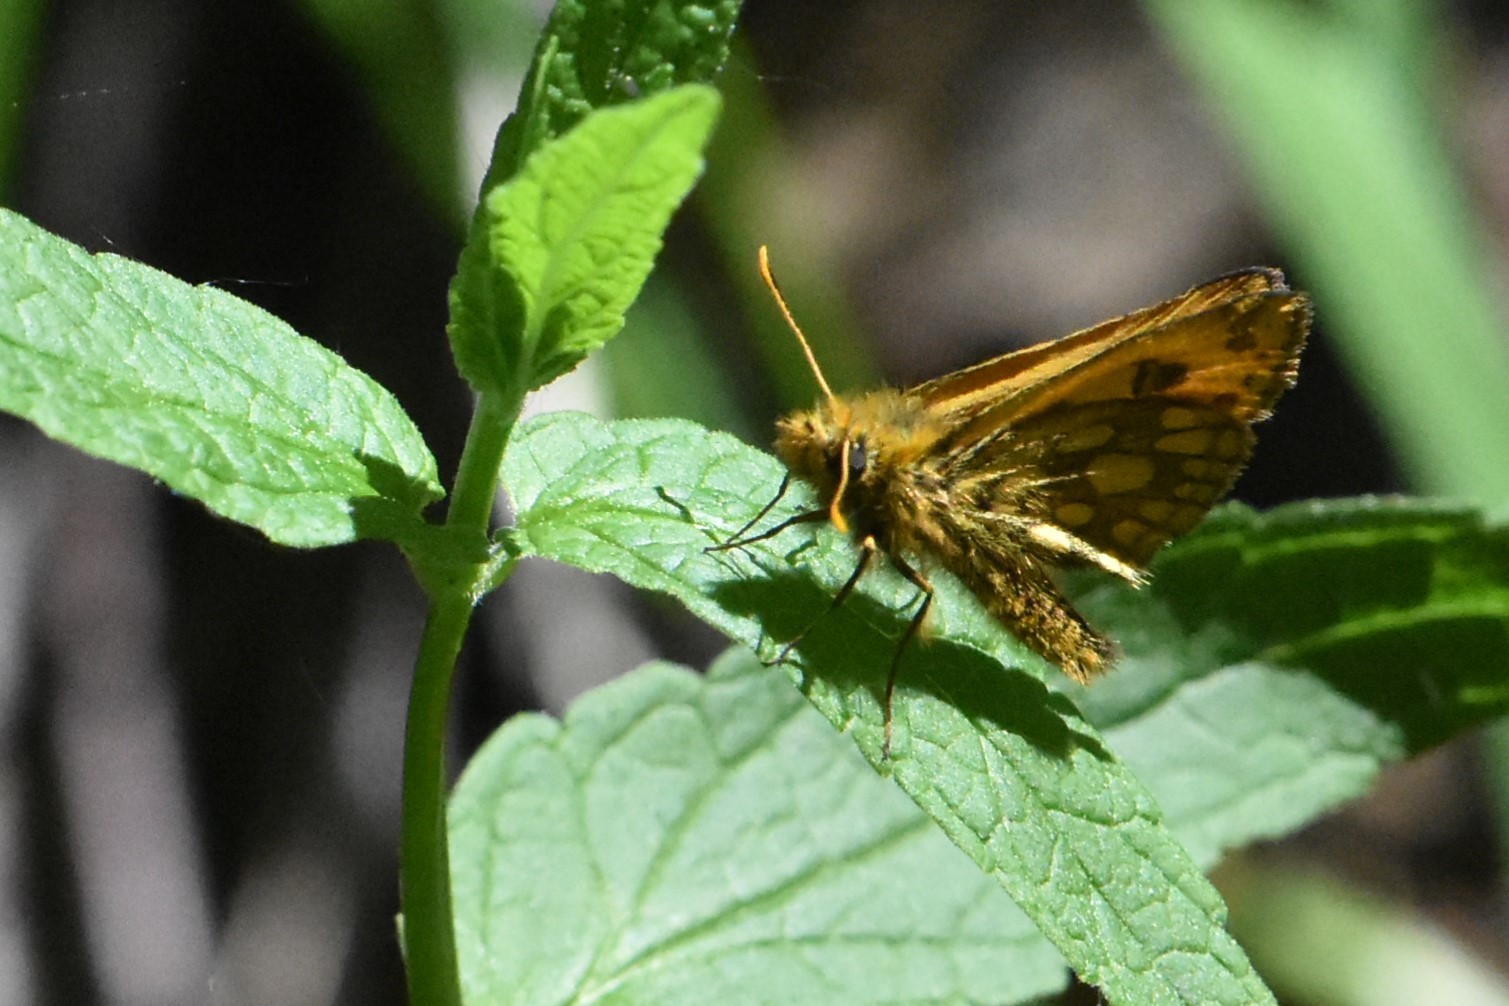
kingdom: Animalia
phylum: Arthropoda
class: Insecta
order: Lepidoptera
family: Hesperiidae
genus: Carterocephalus
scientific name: Carterocephalus silvicola
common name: Northern chequered skipper
